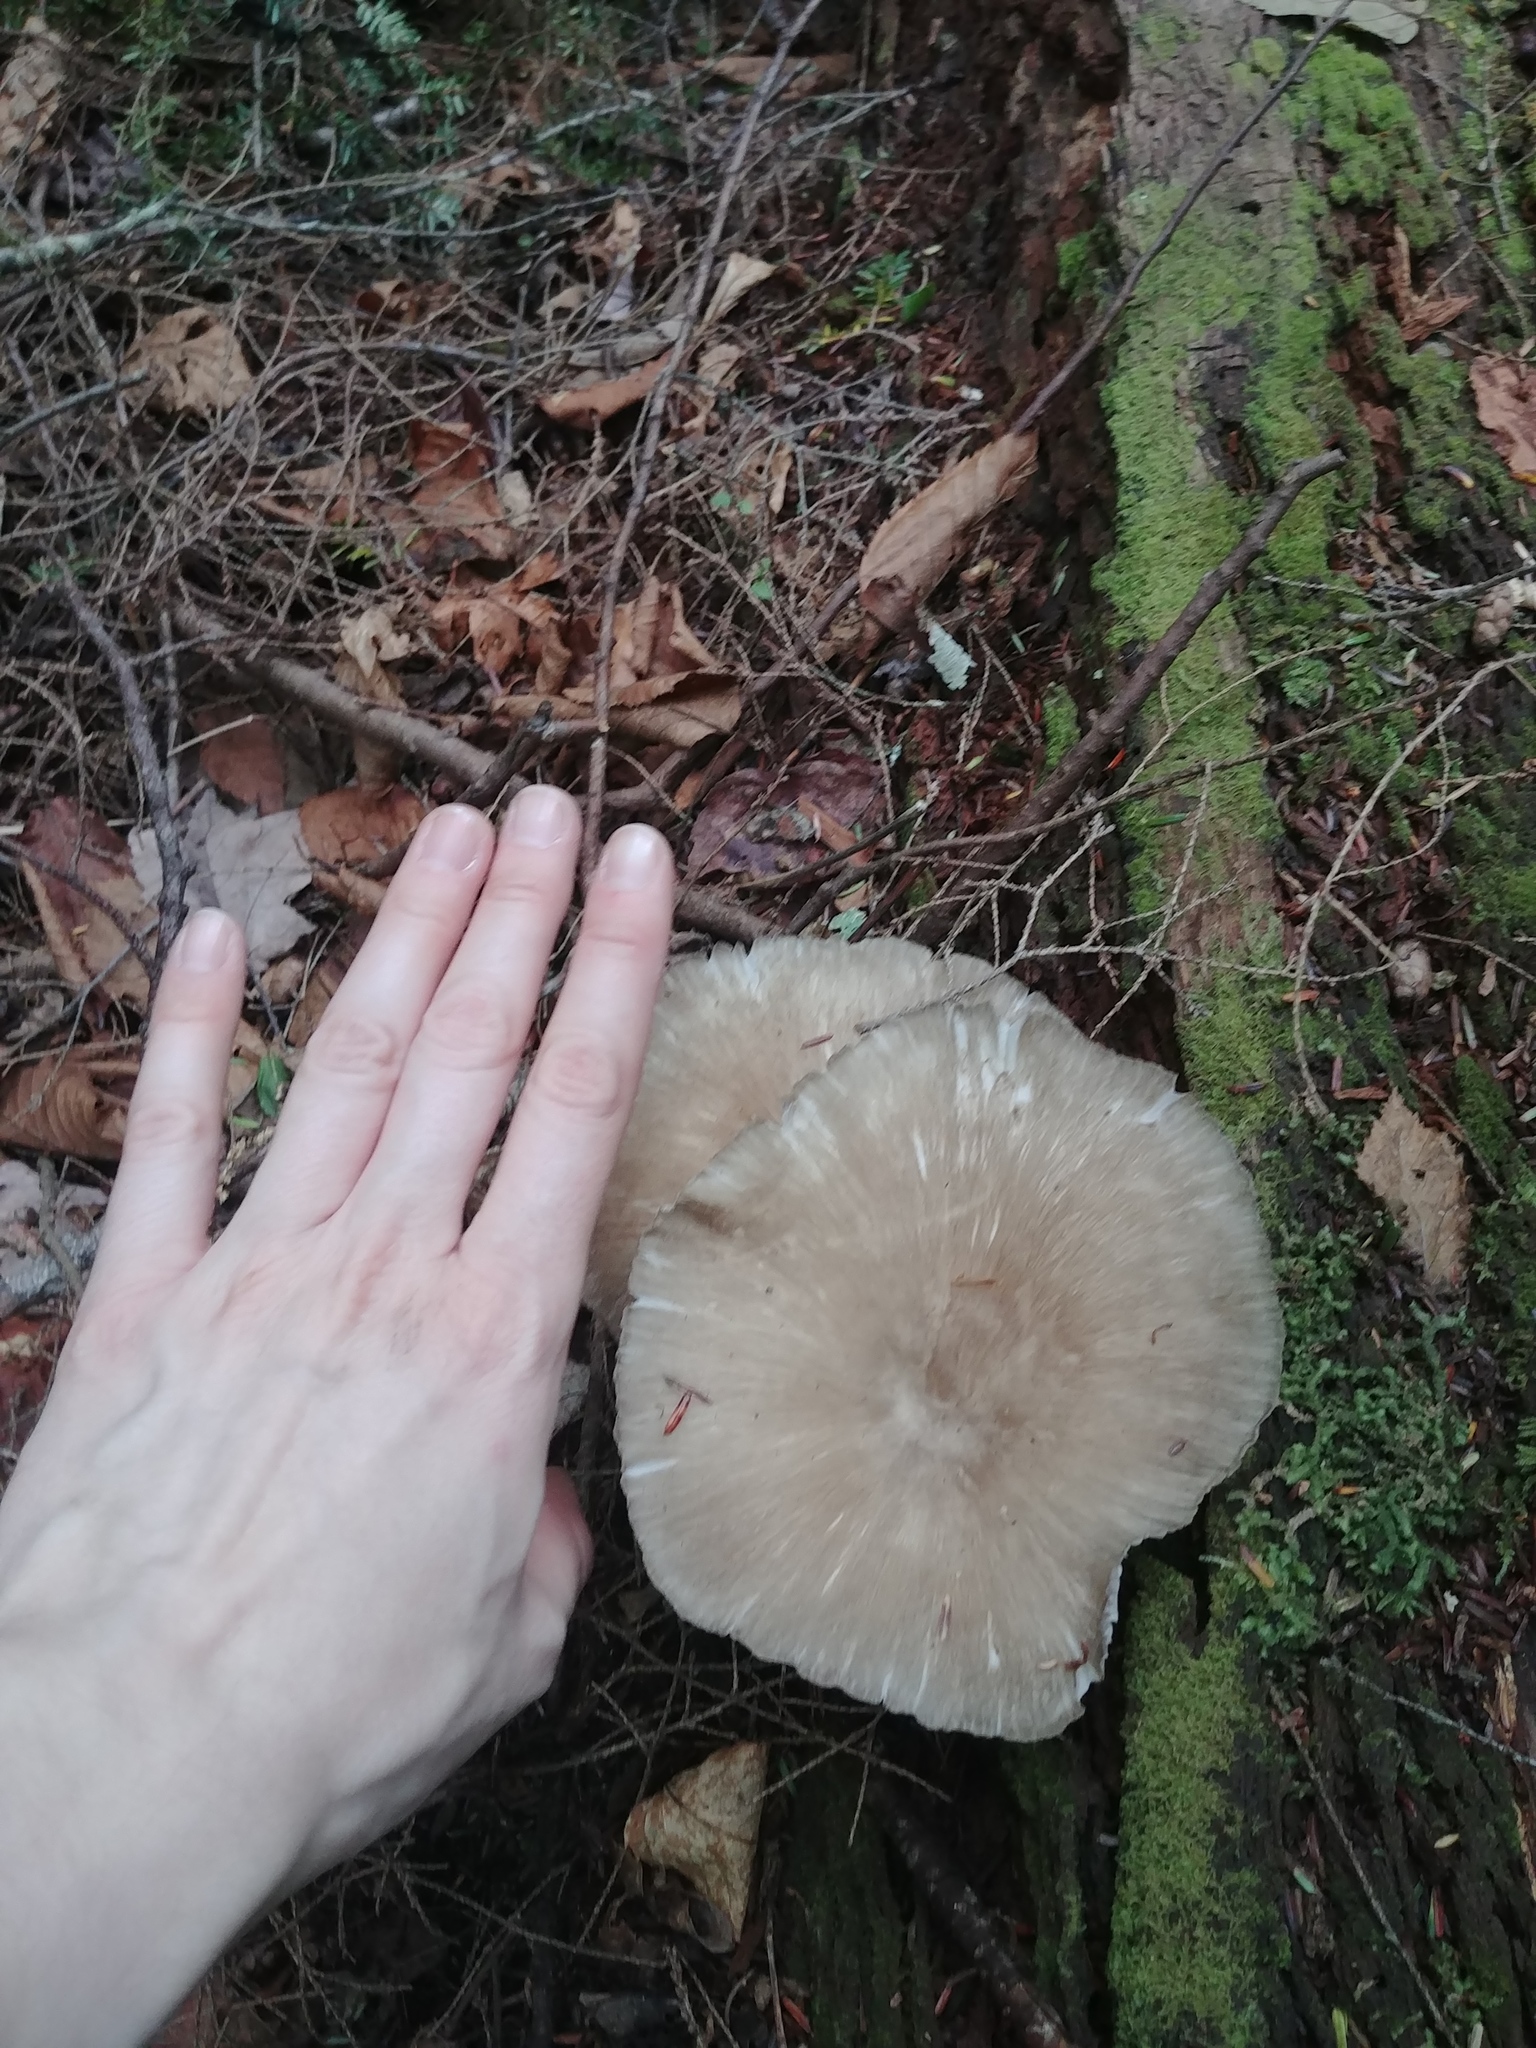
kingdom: Fungi
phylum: Basidiomycota
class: Agaricomycetes
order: Agaricales
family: Tricholomataceae
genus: Megacollybia
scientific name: Megacollybia rodmanii
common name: Eastern american platterful mushroom
